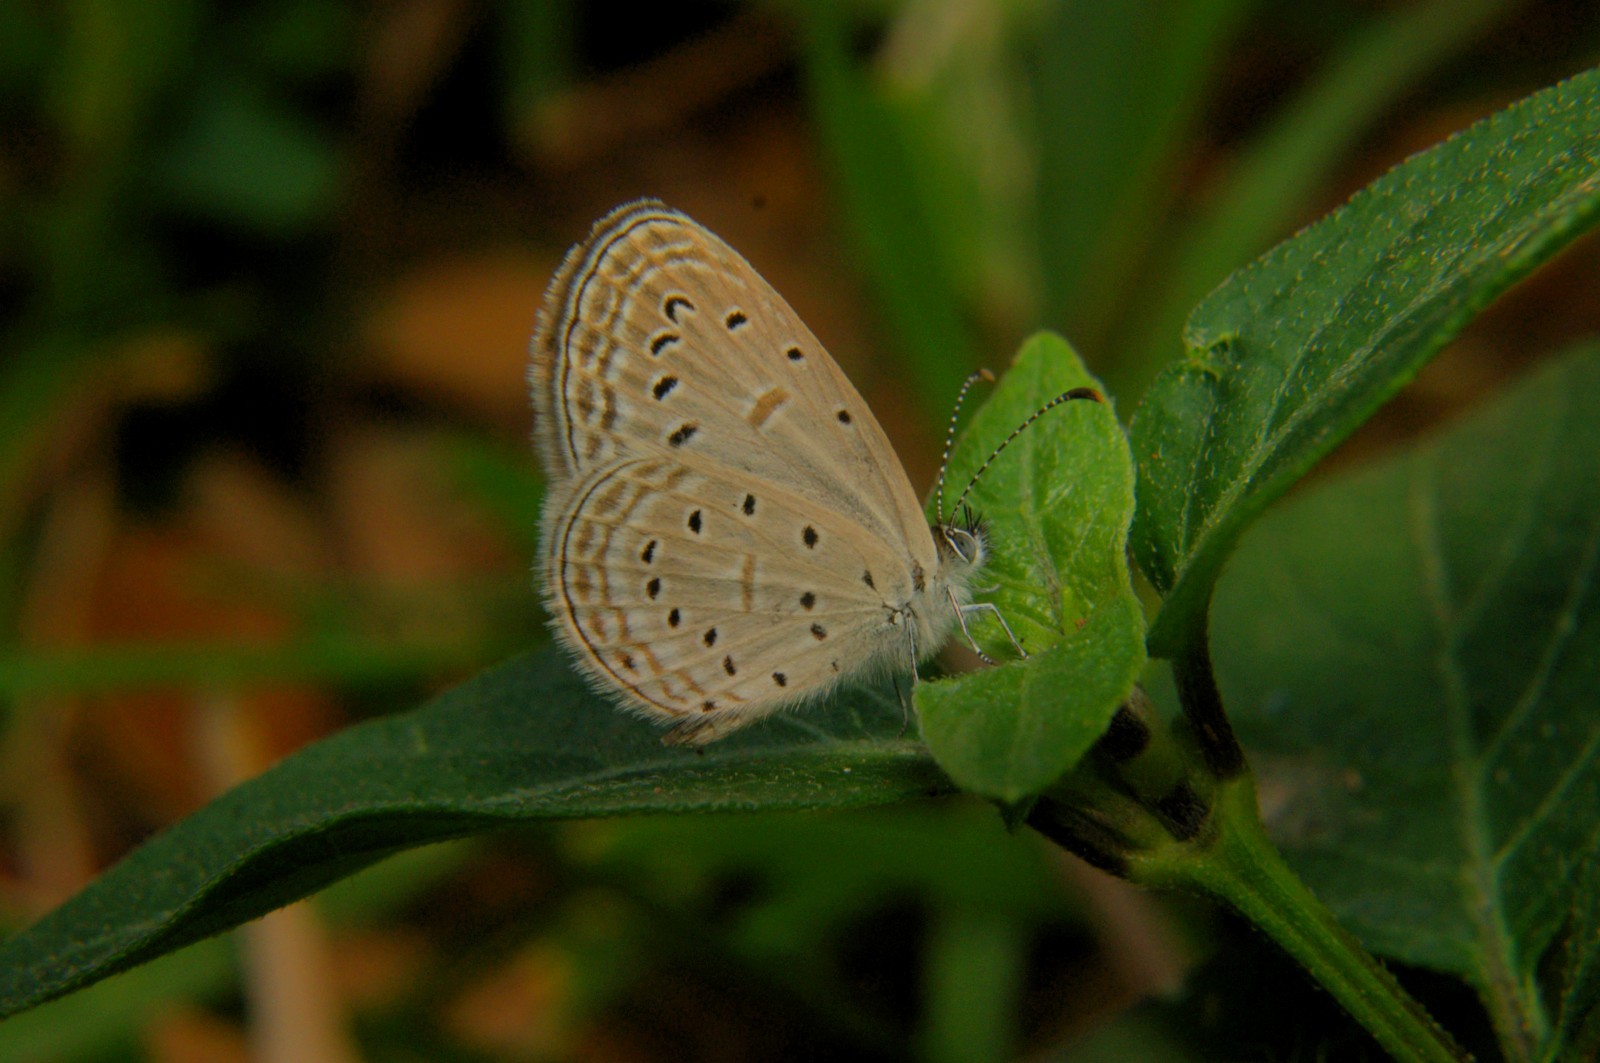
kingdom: Animalia
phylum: Arthropoda
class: Insecta
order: Lepidoptera
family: Lycaenidae
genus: Zizula
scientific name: Zizula hylax
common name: Gaika blue
